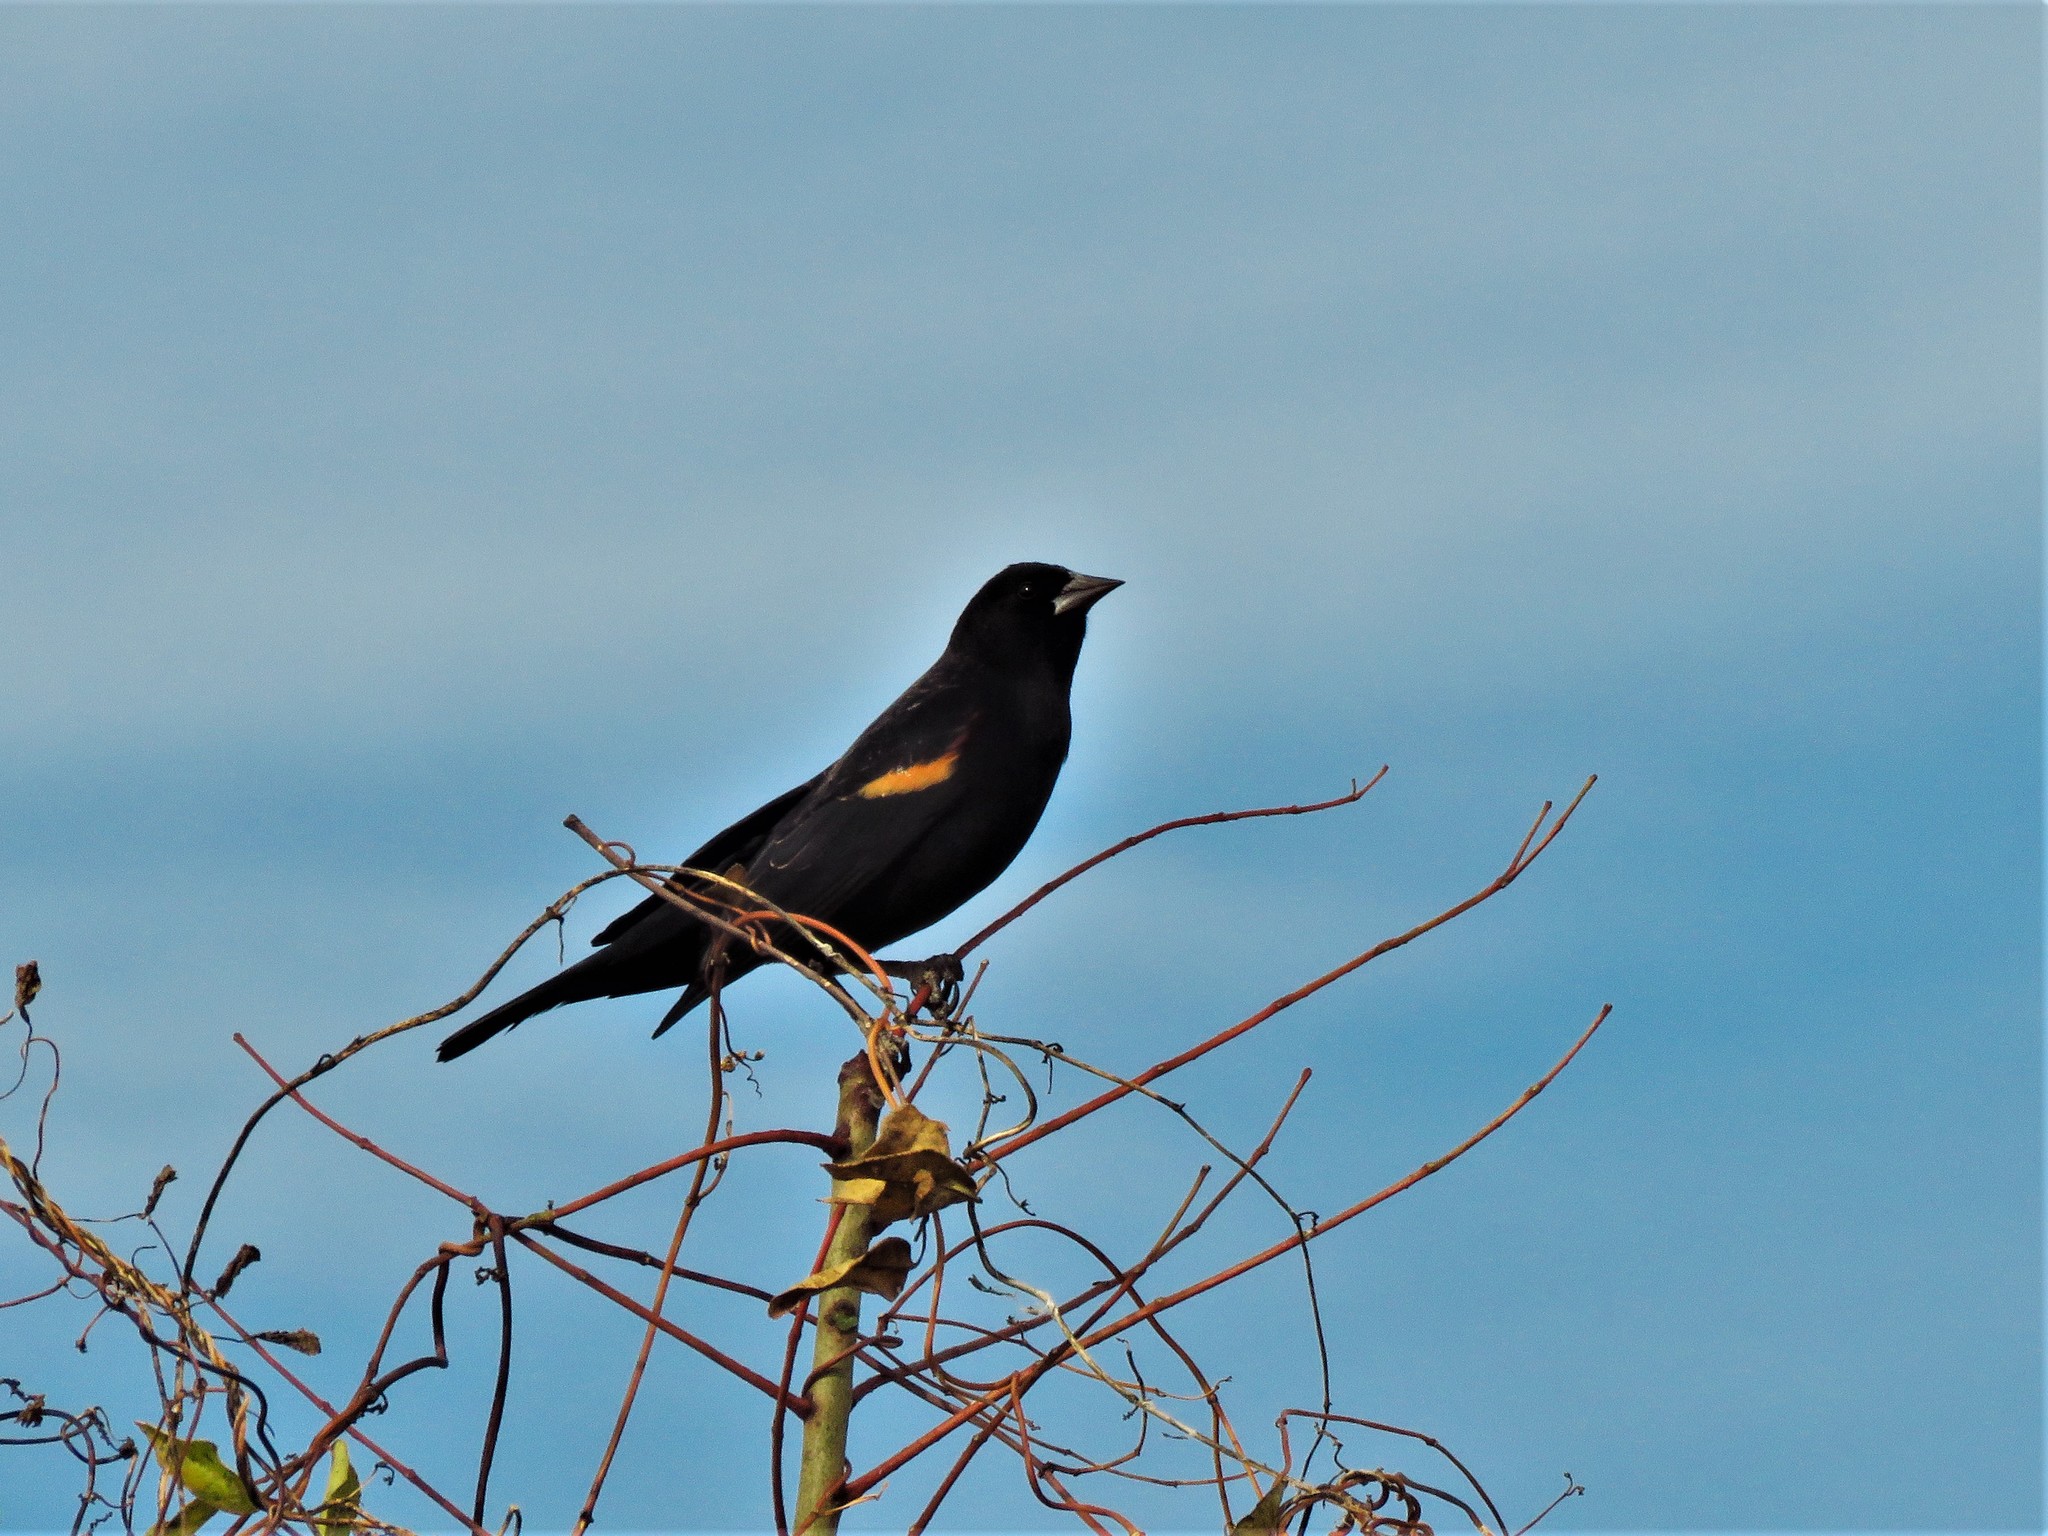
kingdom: Animalia
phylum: Chordata
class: Aves
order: Passeriformes
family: Icteridae
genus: Agelaius
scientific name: Agelaius phoeniceus
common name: Red-winged blackbird
